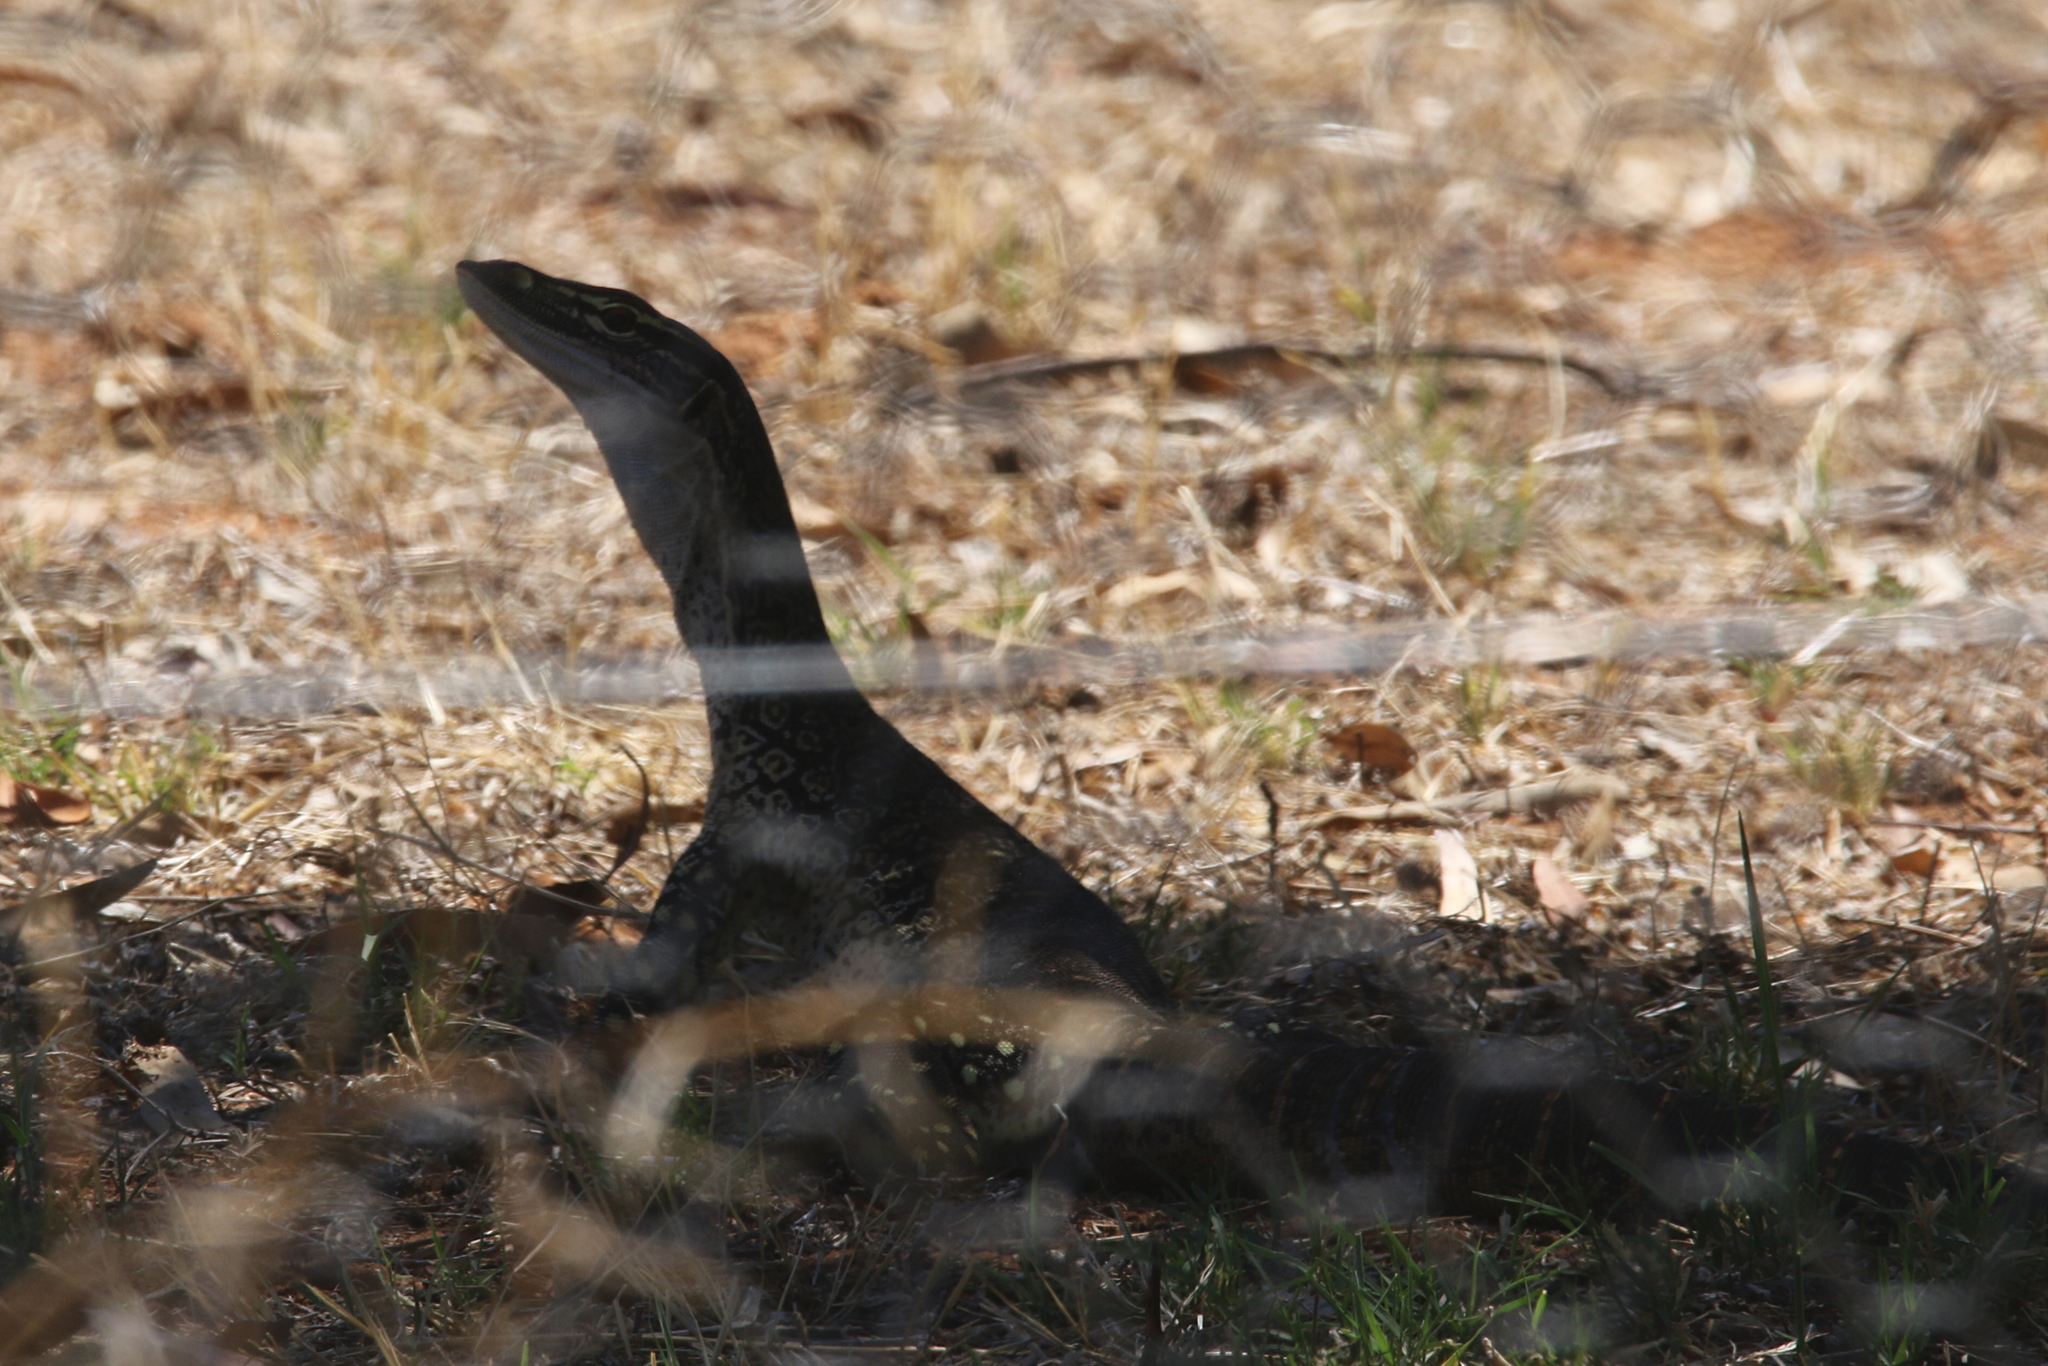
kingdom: Animalia
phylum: Chordata
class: Squamata
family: Varanidae
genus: Varanus
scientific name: Varanus gouldii
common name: Gould's goanna
